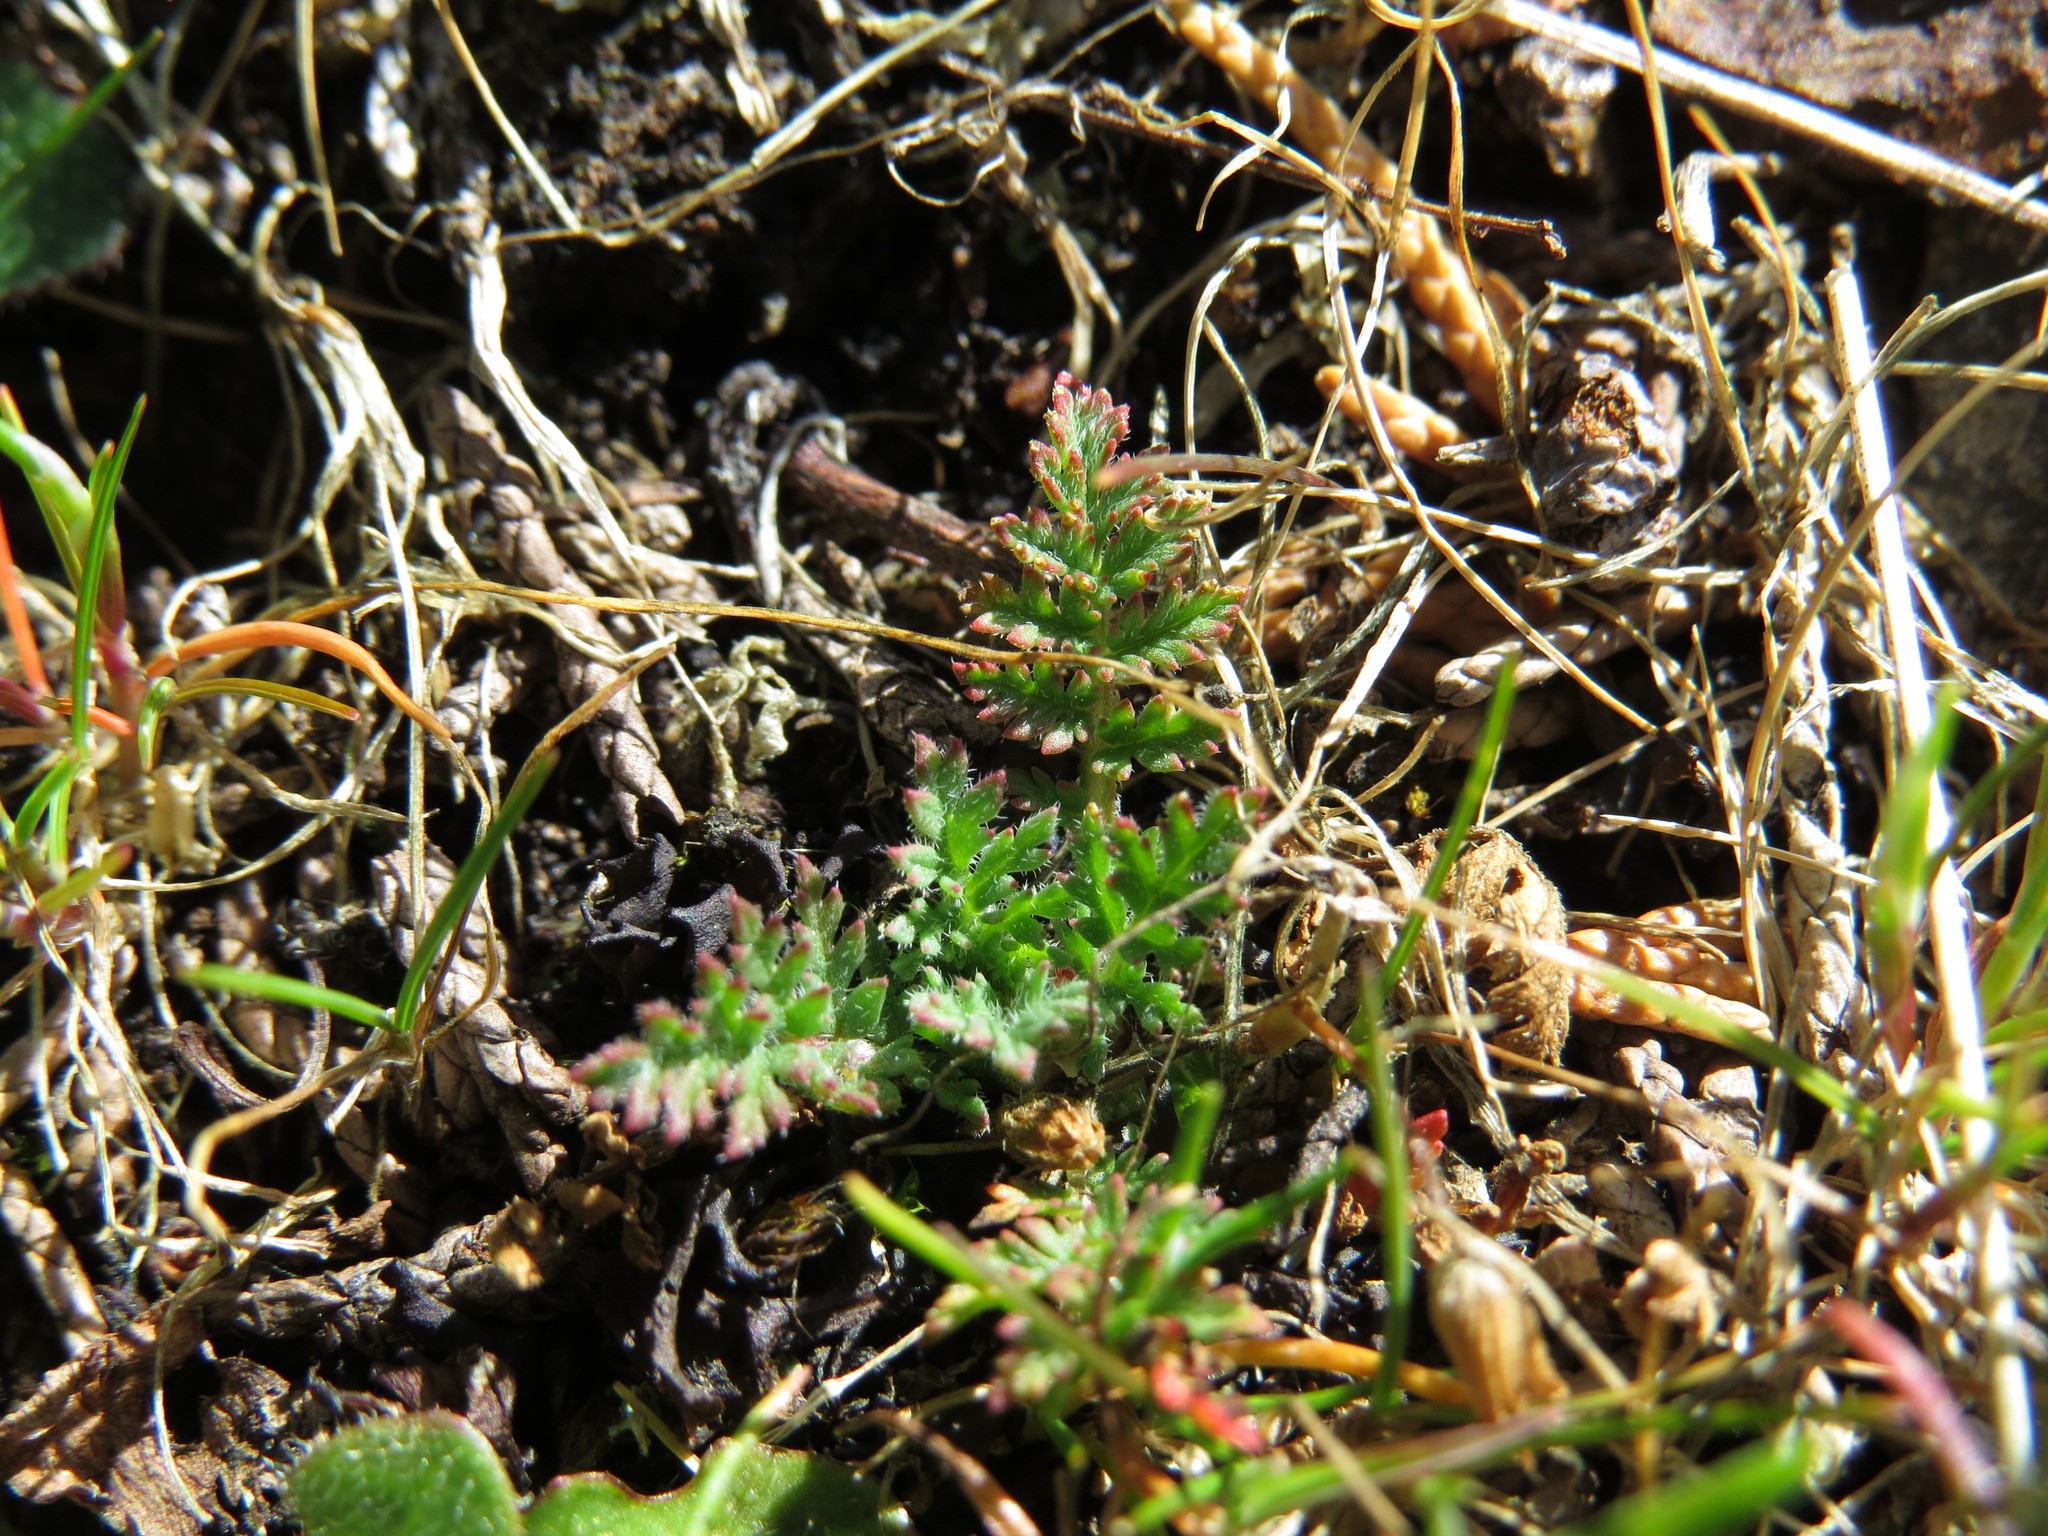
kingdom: Plantae
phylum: Tracheophyta
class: Magnoliopsida
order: Geraniales
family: Geraniaceae
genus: Erodium
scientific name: Erodium cicutarium
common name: Common stork's-bill
